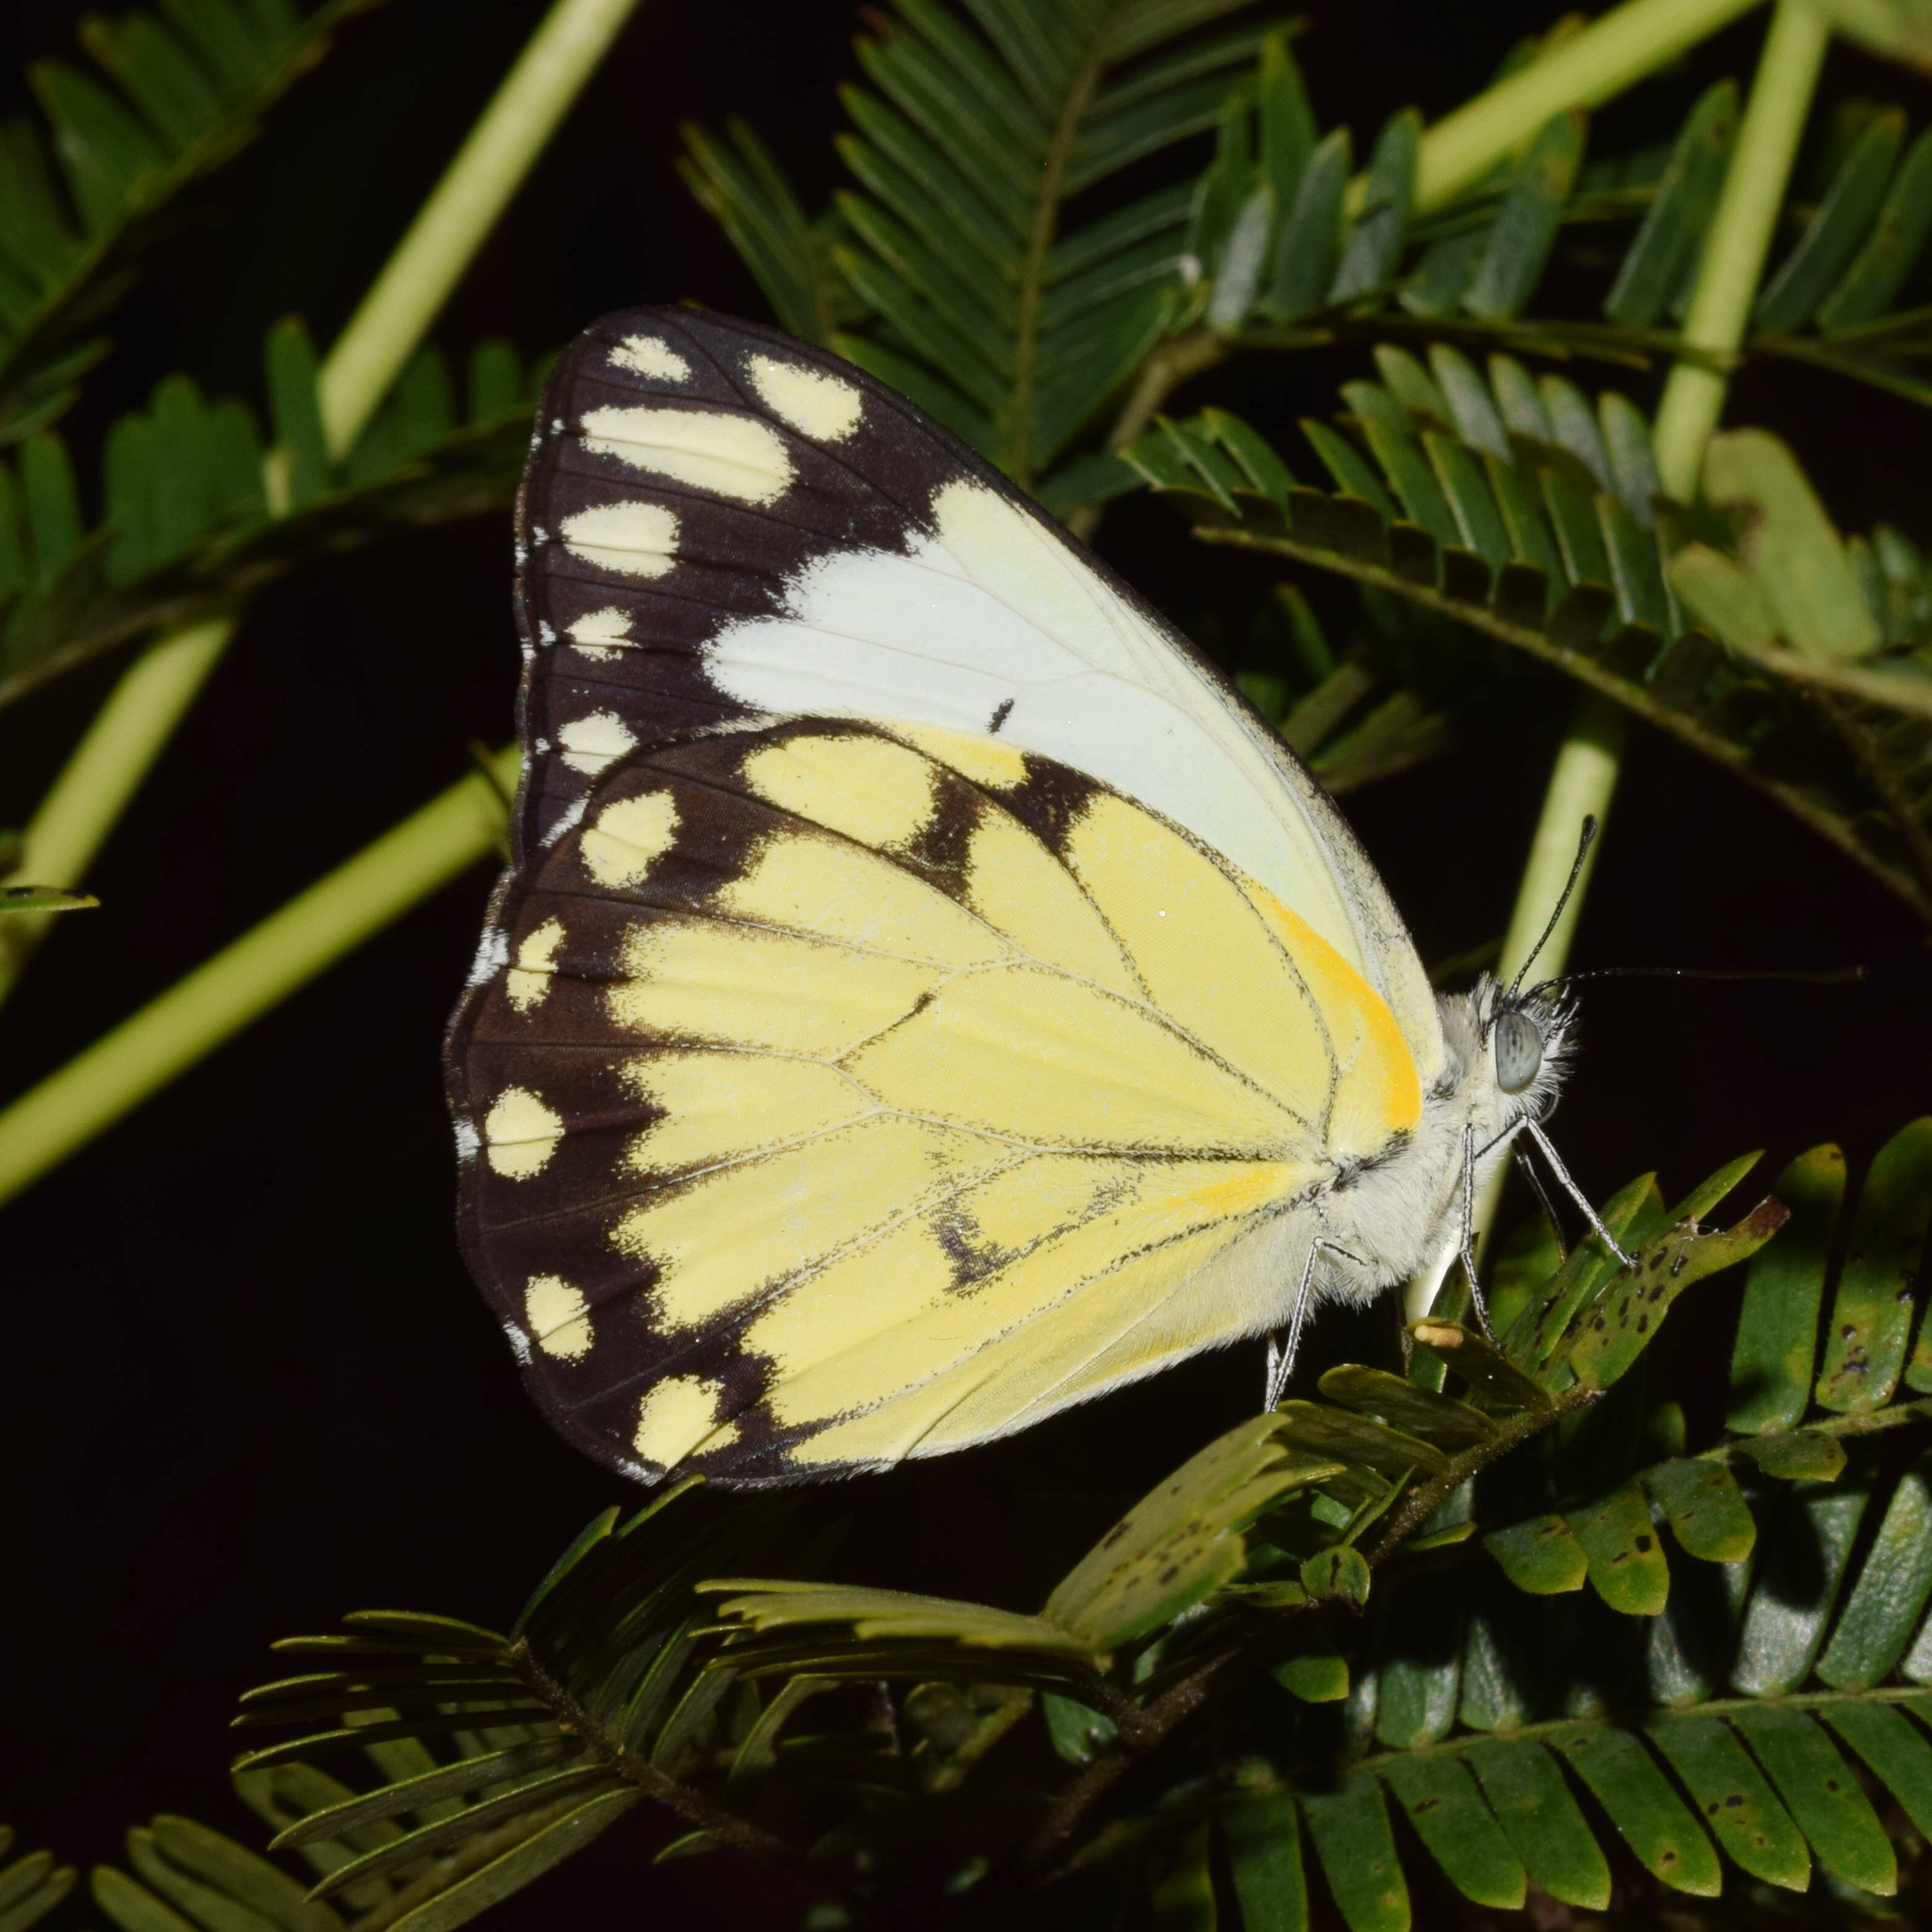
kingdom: Animalia
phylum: Arthropoda
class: Insecta
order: Lepidoptera
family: Pieridae
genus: Belenois
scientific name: Belenois creona
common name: African caper white
